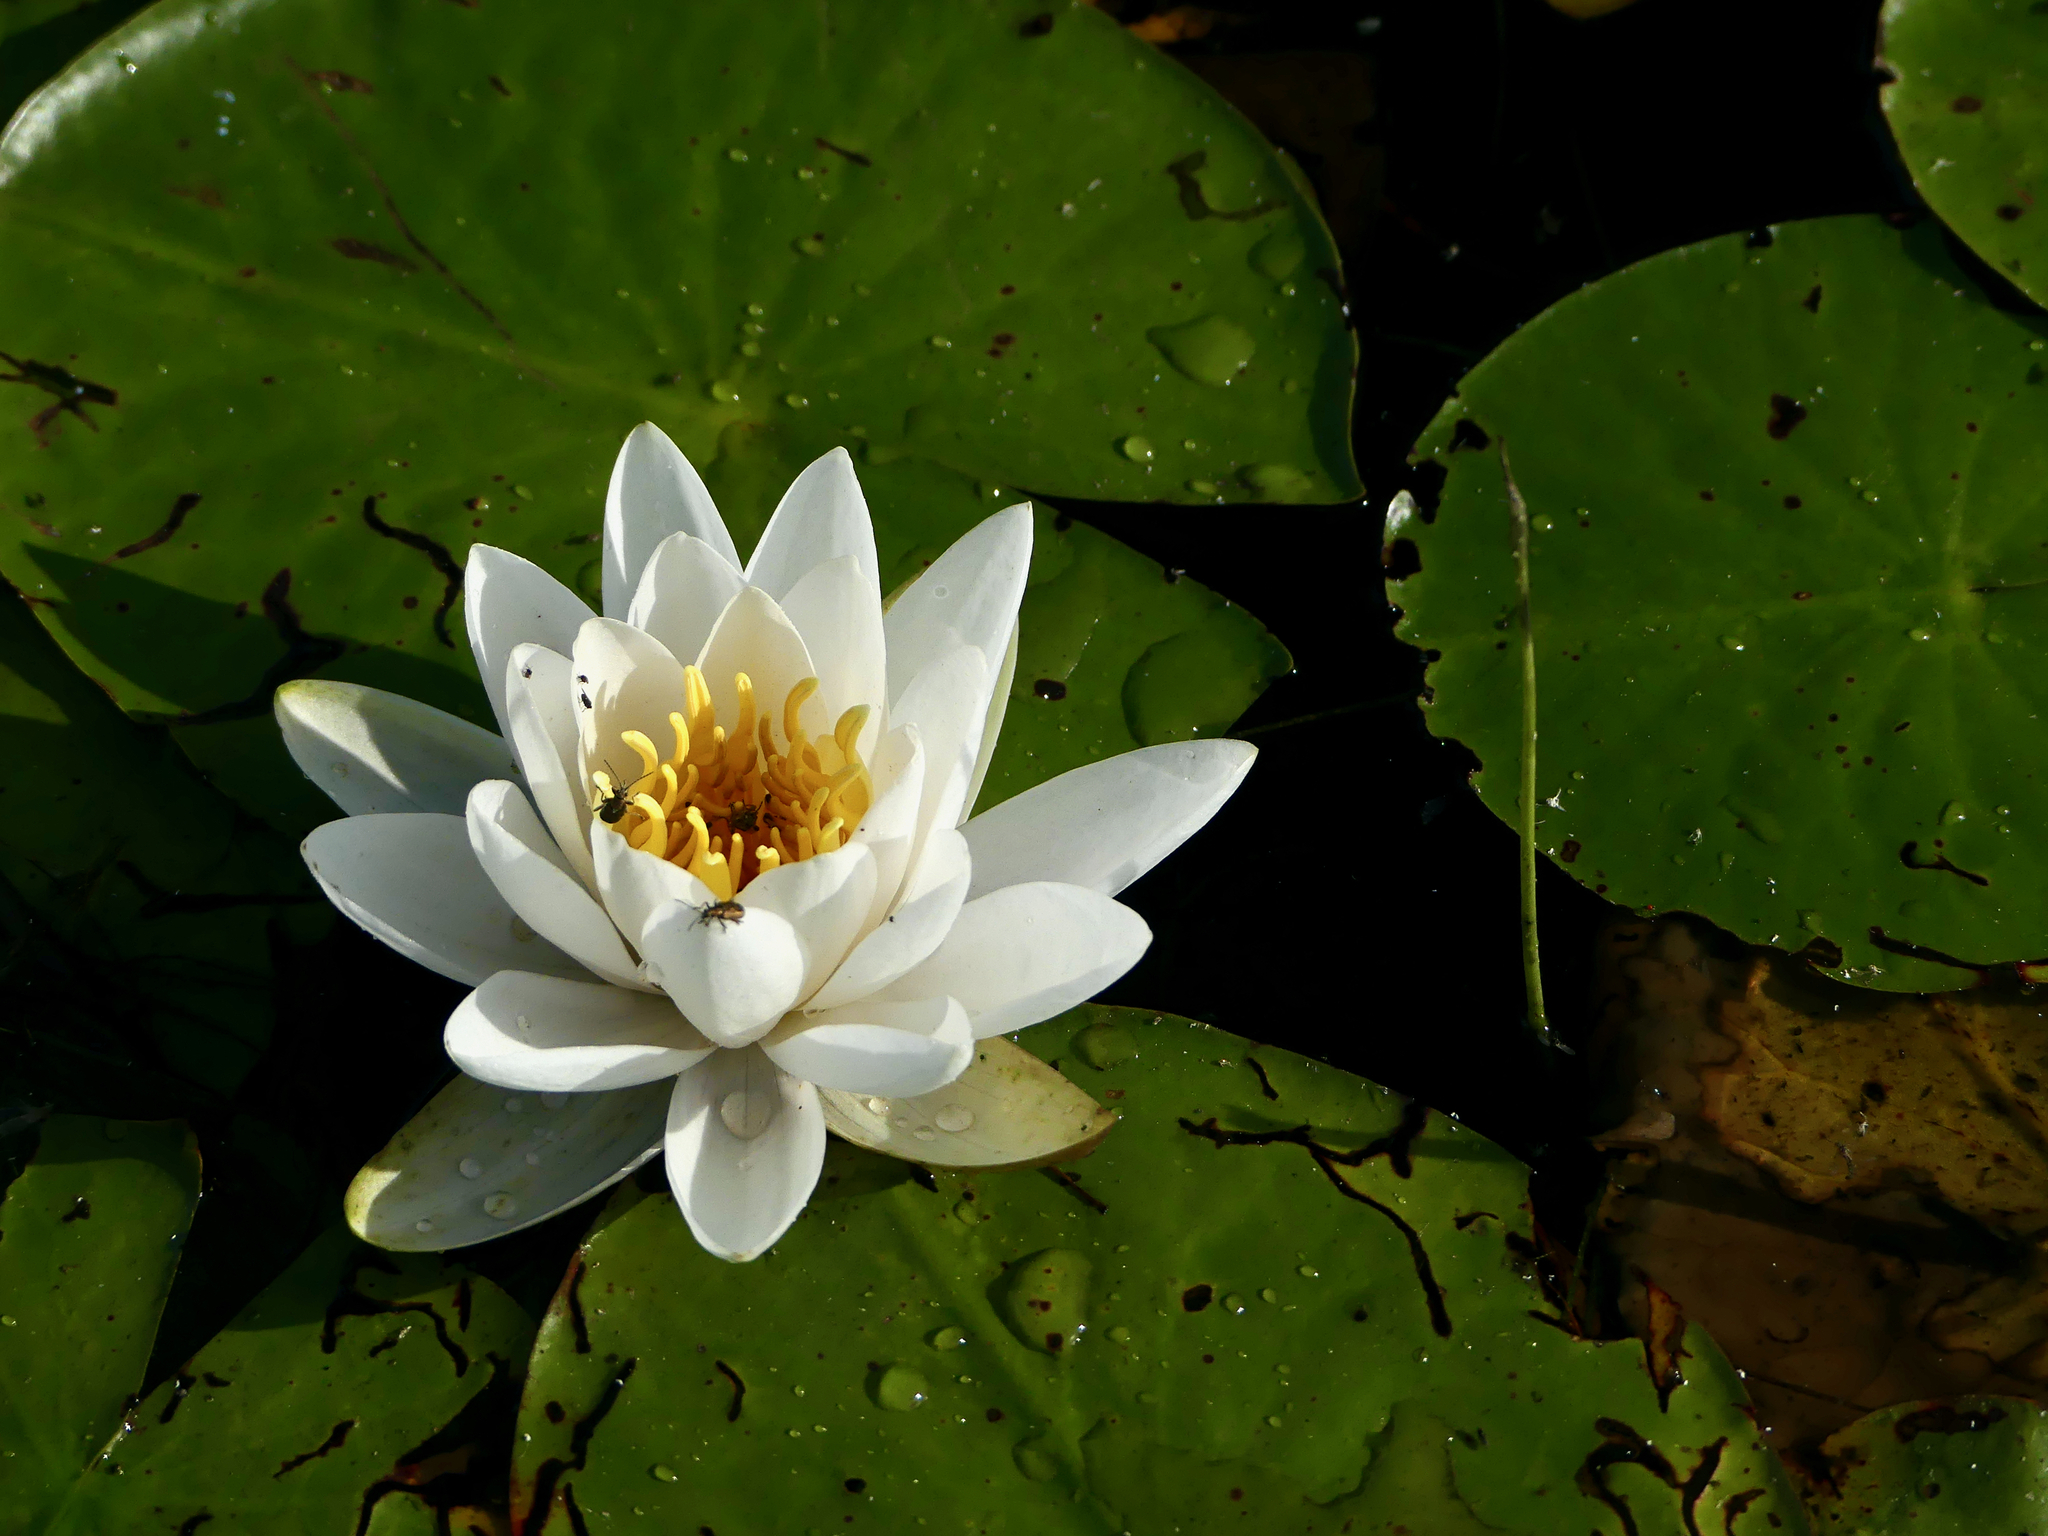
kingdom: Plantae
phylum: Tracheophyta
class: Magnoliopsida
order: Nymphaeales
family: Nymphaeaceae
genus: Nymphaea
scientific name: Nymphaea odorata
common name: Fragrant water-lily
